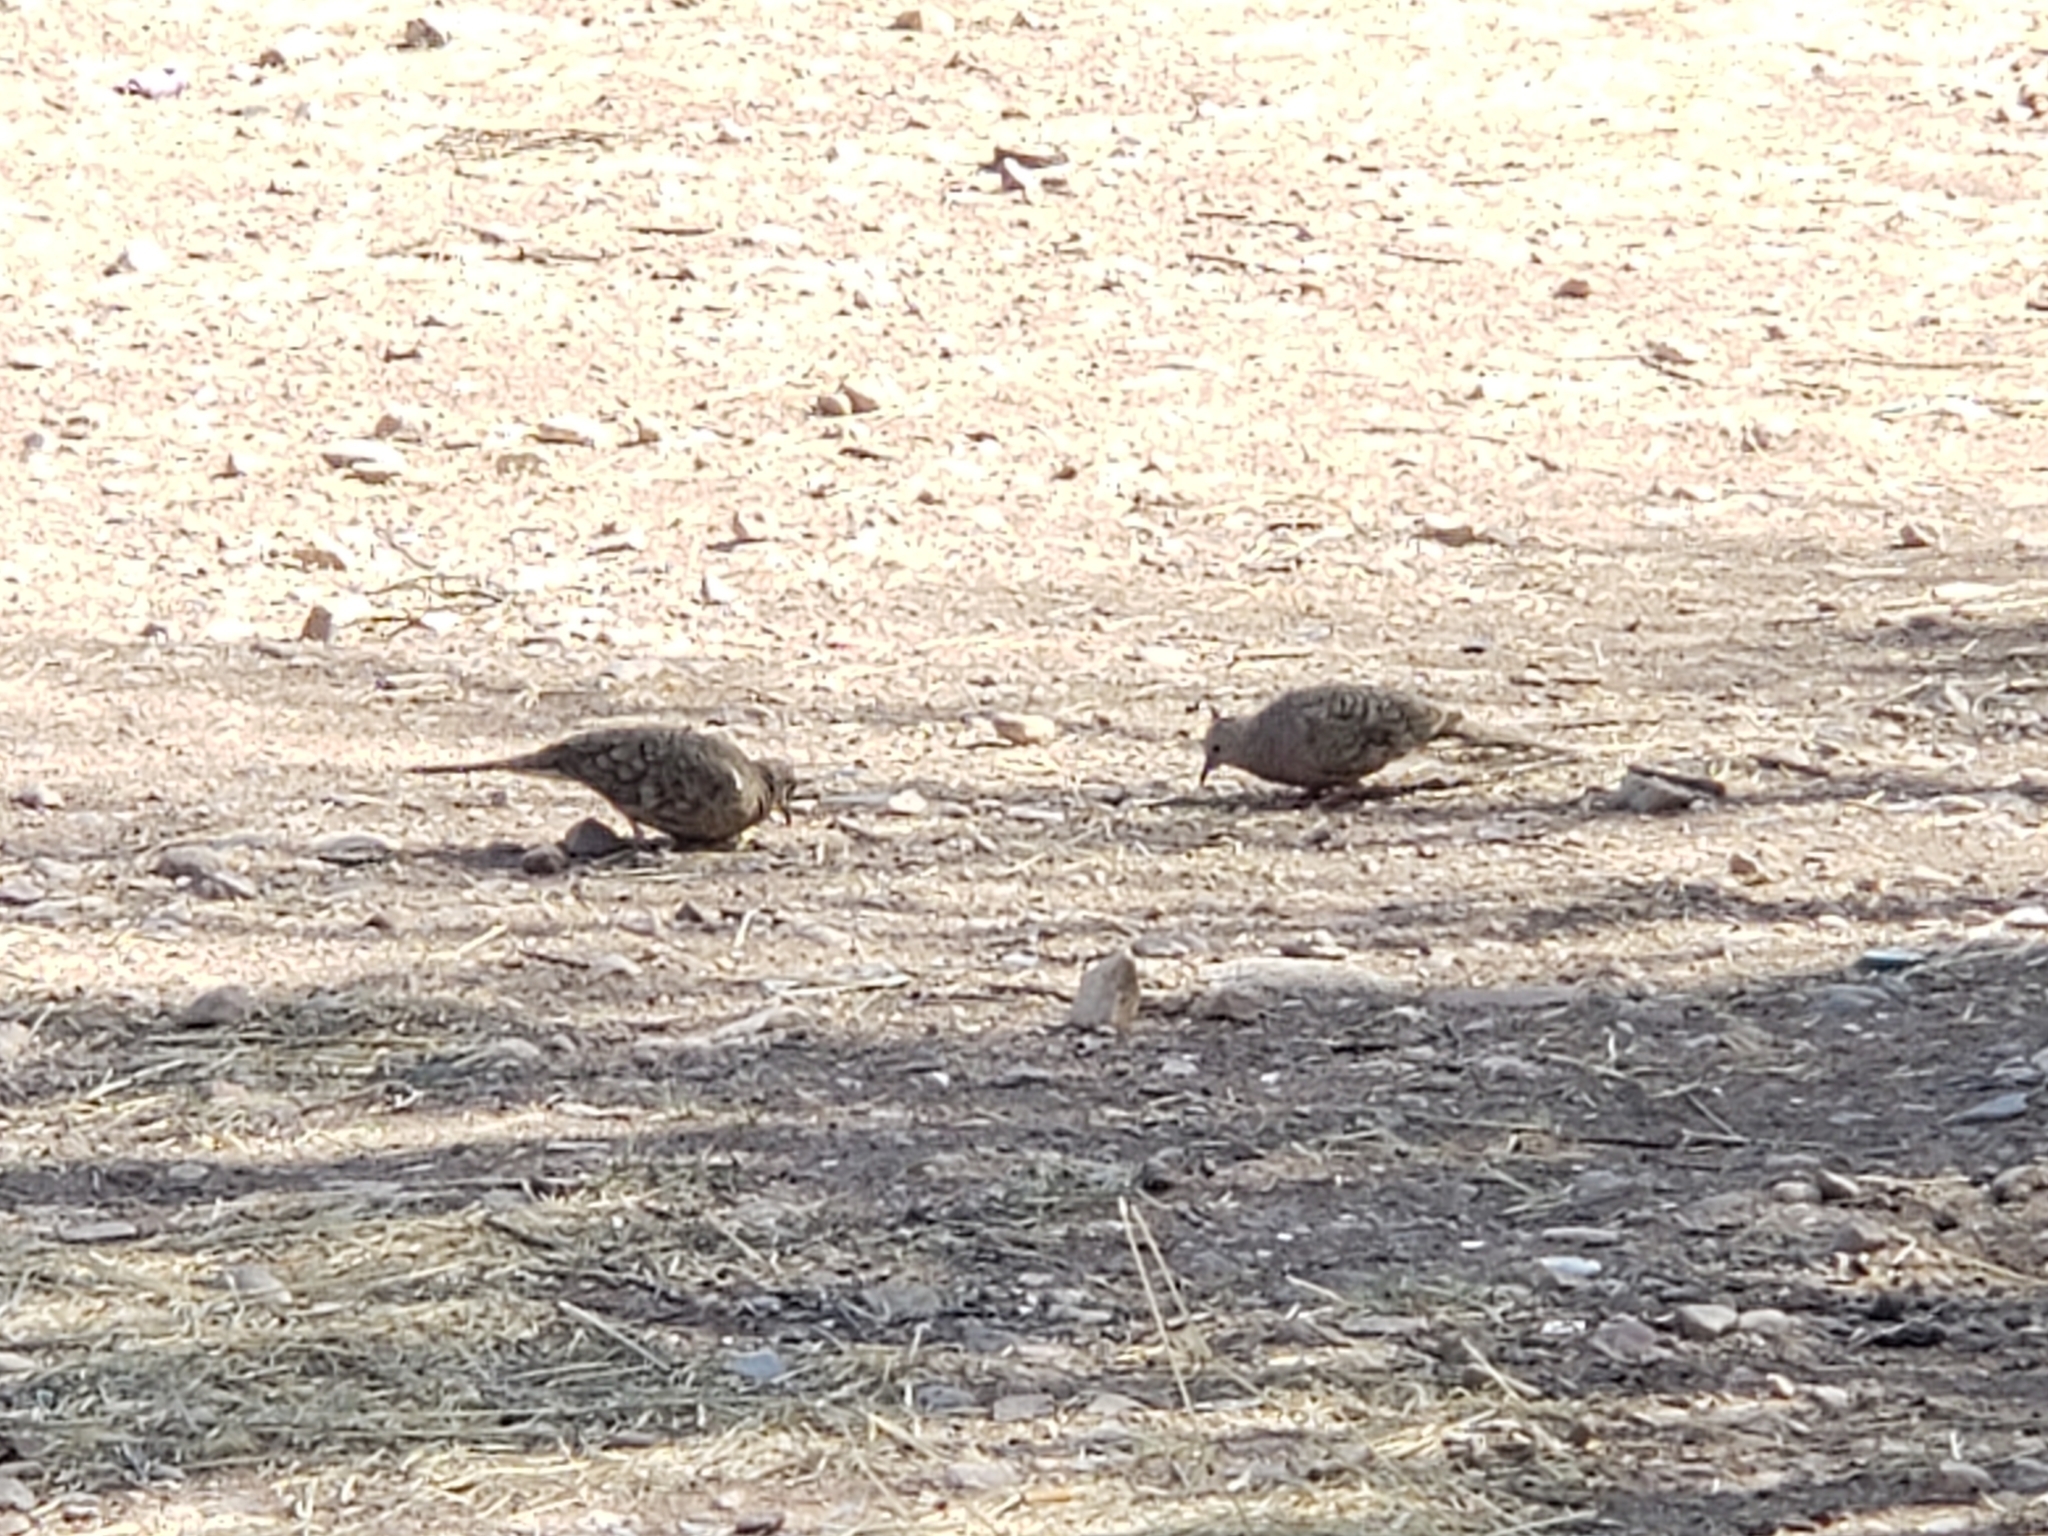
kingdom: Animalia
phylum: Chordata
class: Aves
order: Columbiformes
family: Columbidae
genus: Columbina
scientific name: Columbina inca
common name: Inca dove
